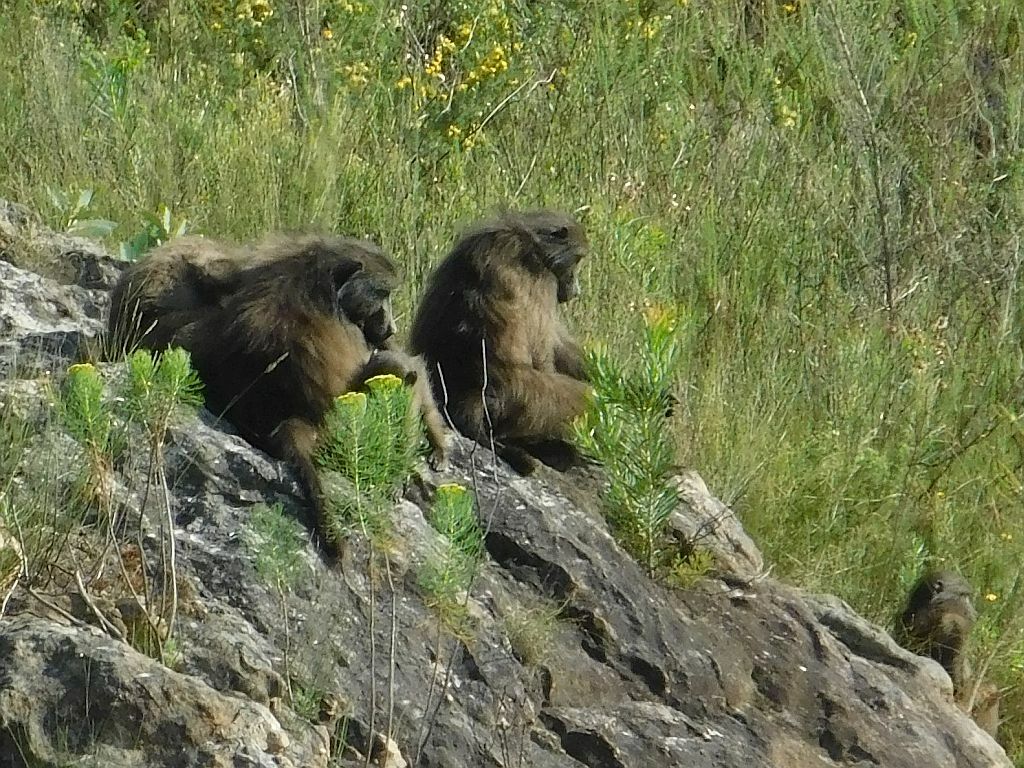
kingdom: Animalia
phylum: Chordata
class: Mammalia
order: Primates
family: Cercopithecidae
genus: Papio
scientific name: Papio ursinus
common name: Chacma baboon
